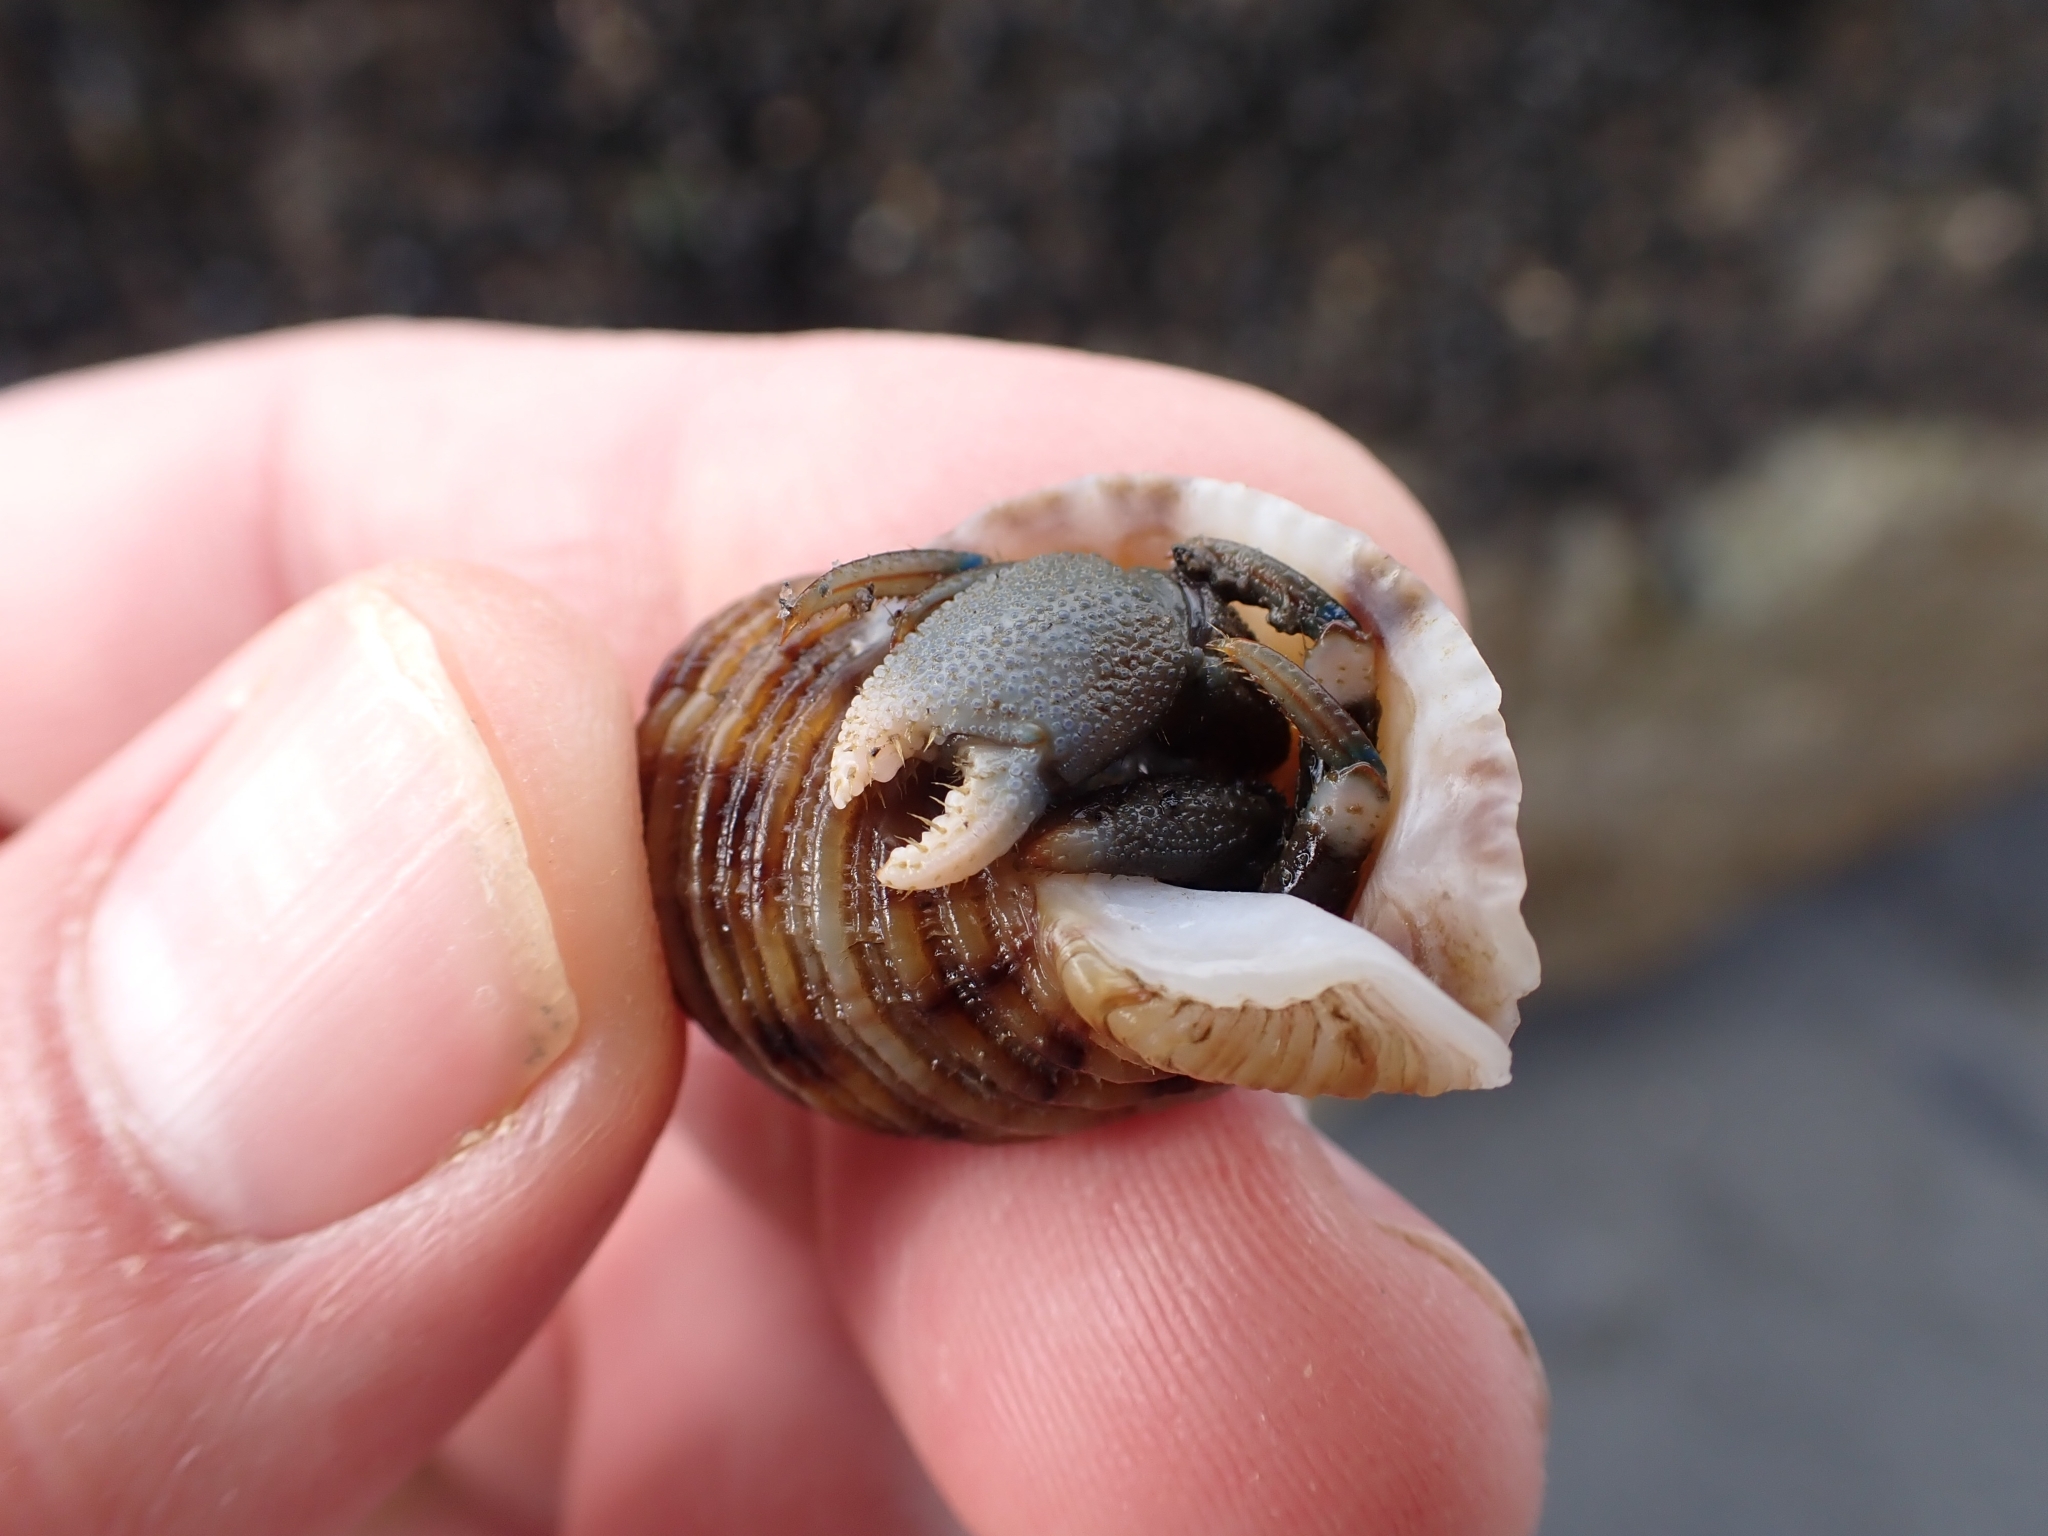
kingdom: Animalia
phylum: Arthropoda
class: Malacostraca
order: Decapoda
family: Paguridae
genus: Pagurus
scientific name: Pagurus hirsutiusculus
